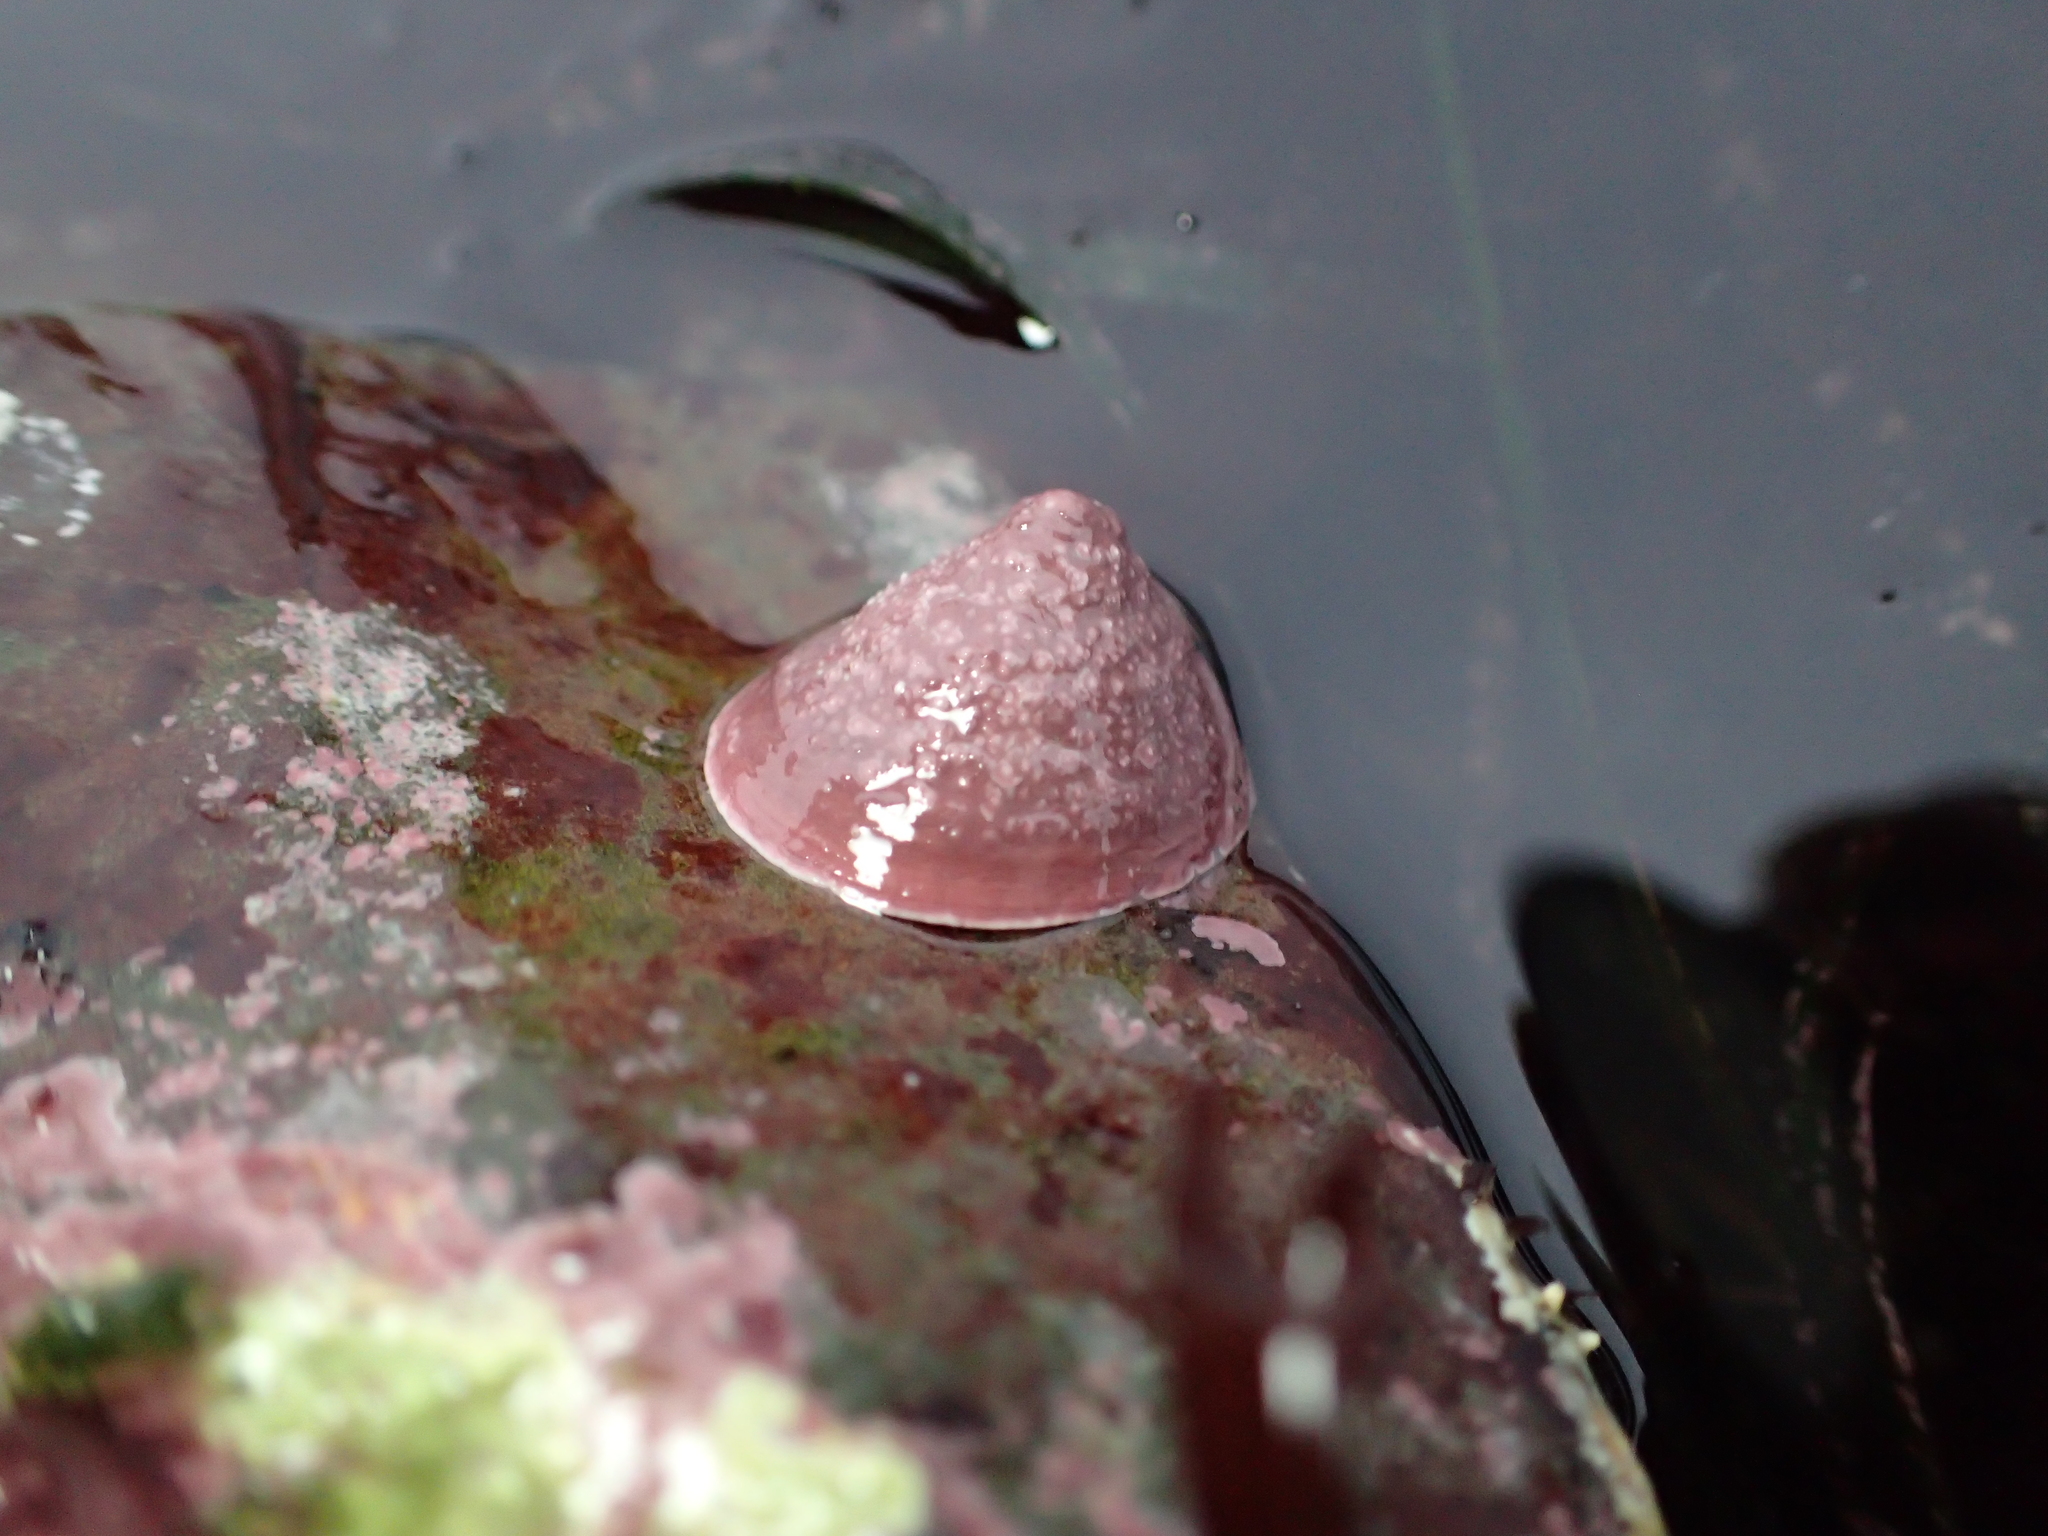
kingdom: Animalia
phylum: Mollusca
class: Gastropoda
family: Acmaeidae
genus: Acmaea
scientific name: Acmaea mitra
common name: Pacific white cap limpet
